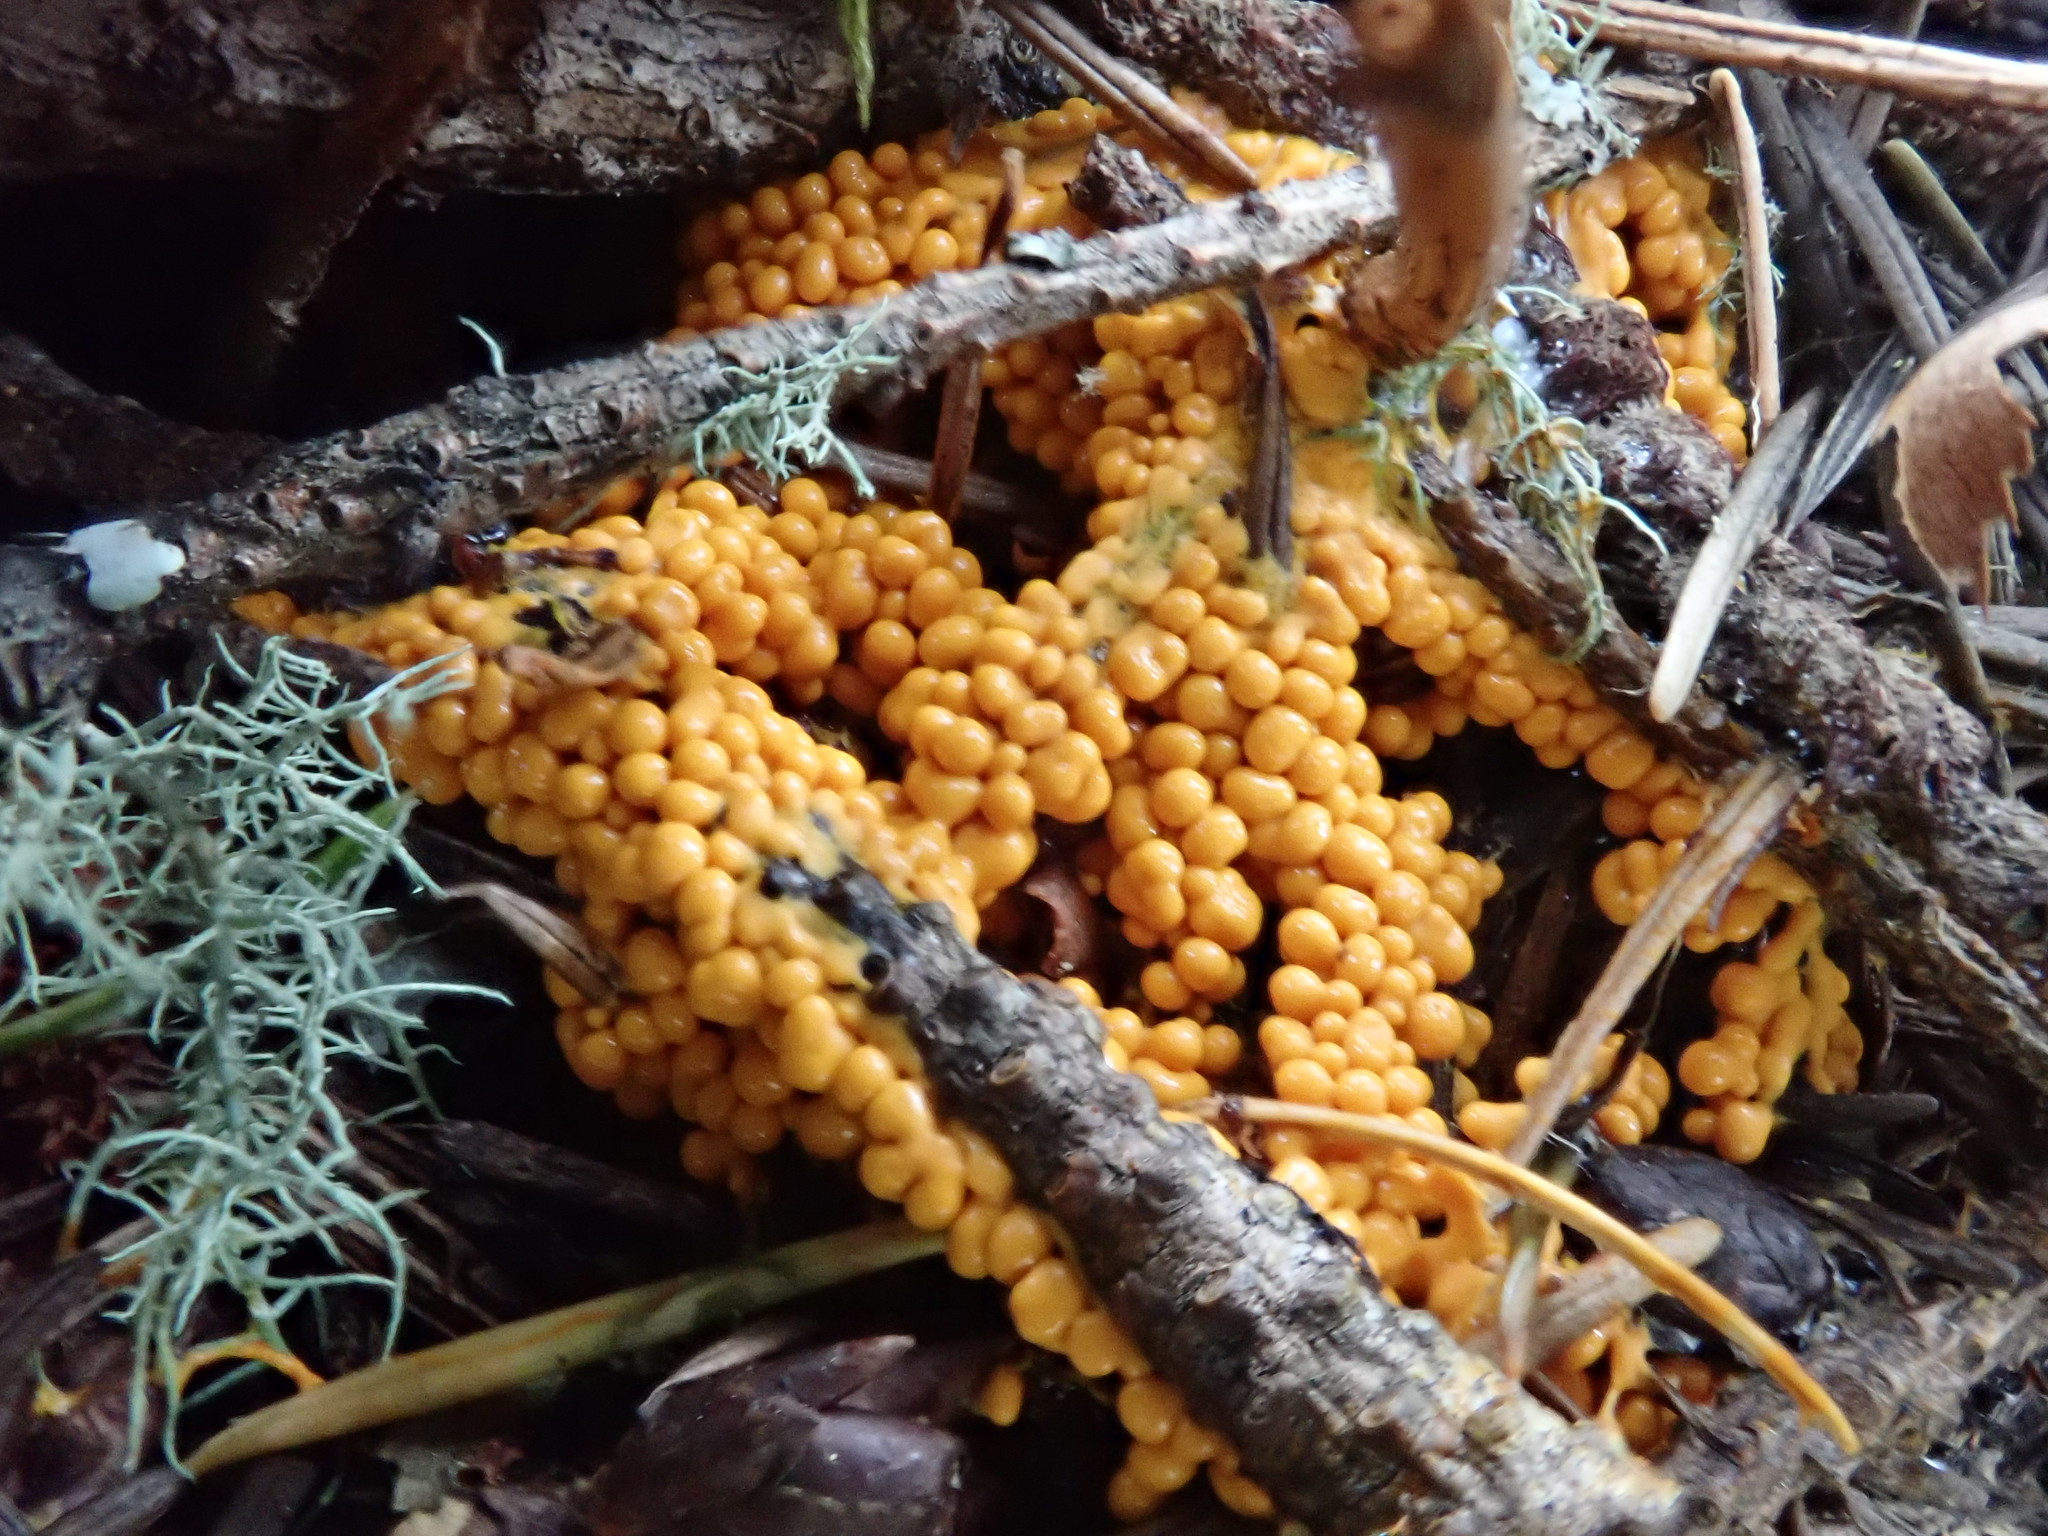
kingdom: Protozoa
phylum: Mycetozoa
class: Myxomycetes
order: Physarales
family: Physaraceae
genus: Leocarpus
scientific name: Leocarpus fragilis
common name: Insect-egg slime
